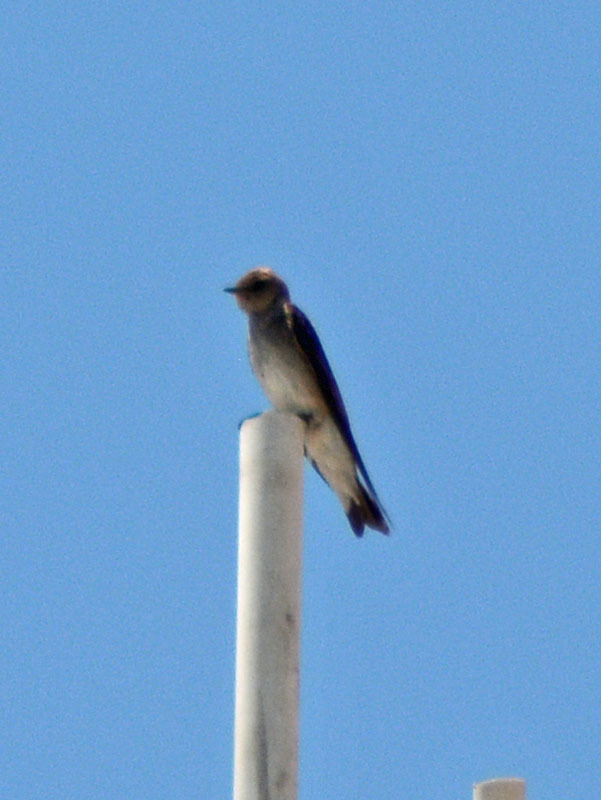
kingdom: Animalia
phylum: Chordata
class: Aves
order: Passeriformes
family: Hirundinidae
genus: Stelgidopteryx
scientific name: Stelgidopteryx serripennis
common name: Northern rough-winged swallow
